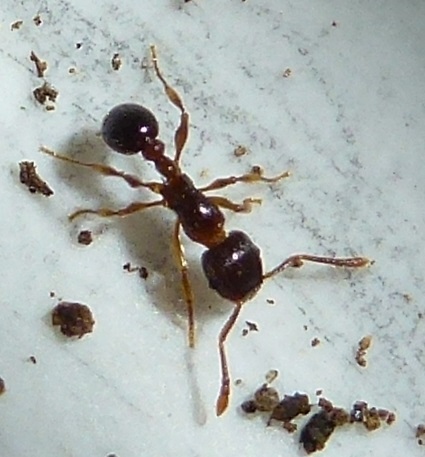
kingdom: Animalia
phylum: Arthropoda
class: Insecta
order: Hymenoptera
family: Formicidae
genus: Tetramorium
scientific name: Tetramorium grassii
